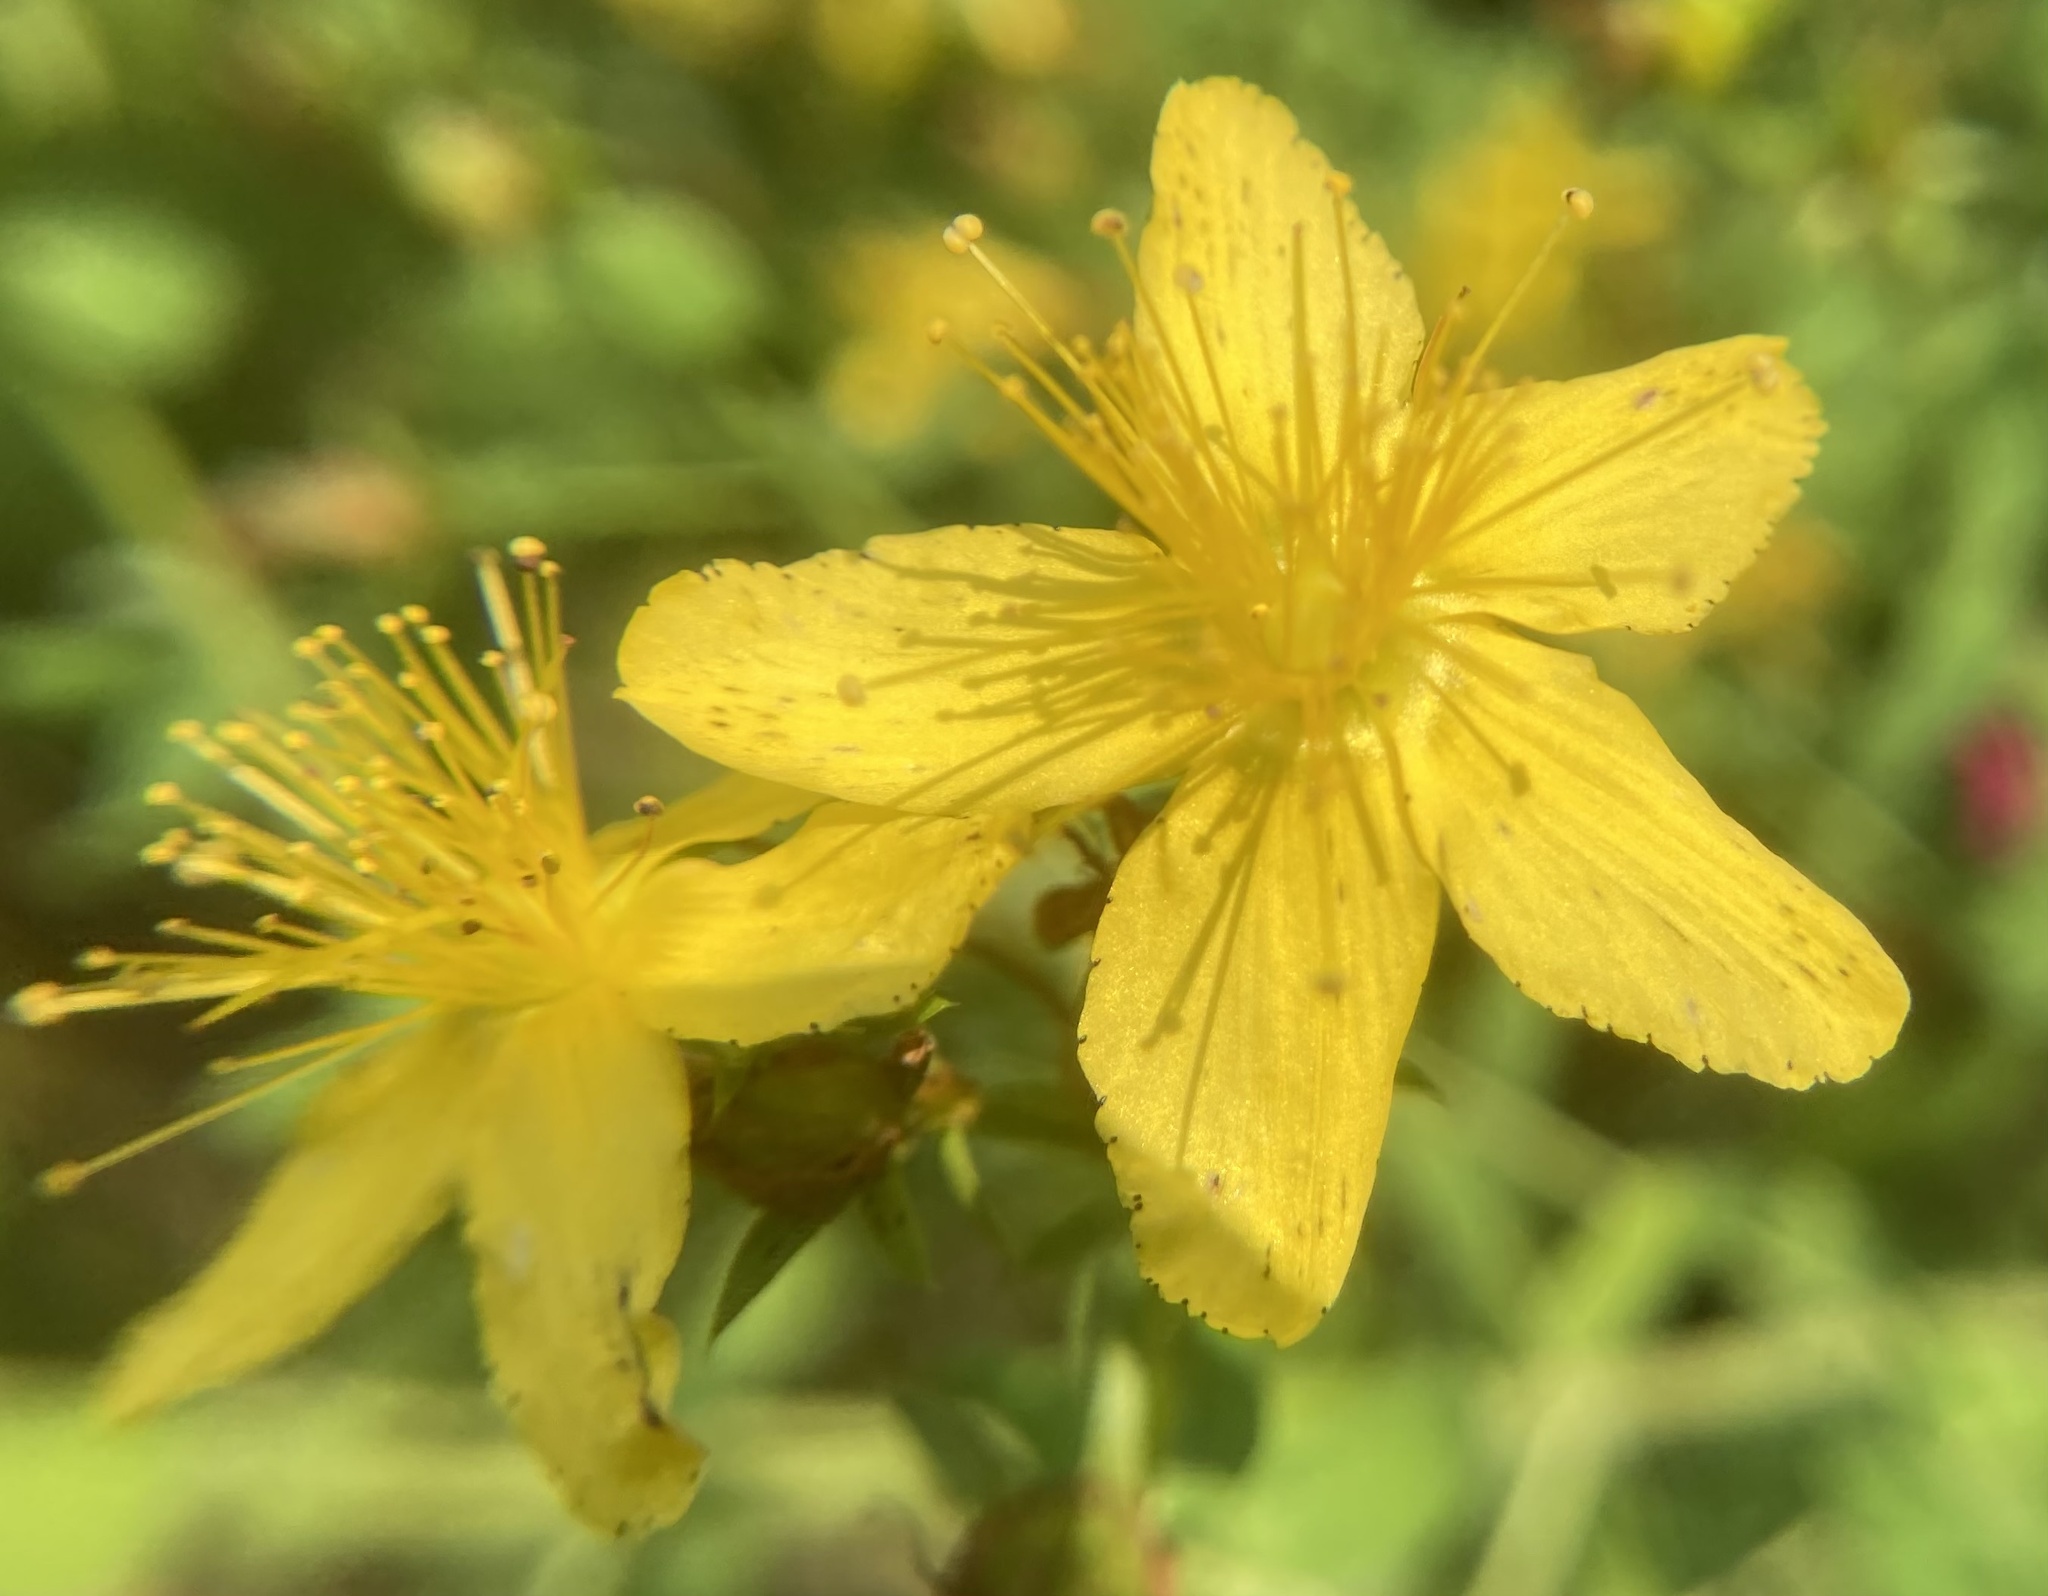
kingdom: Plantae
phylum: Tracheophyta
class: Magnoliopsida
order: Malpighiales
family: Hypericaceae
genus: Hypericum
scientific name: Hypericum perforatum
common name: Common st. johnswort
